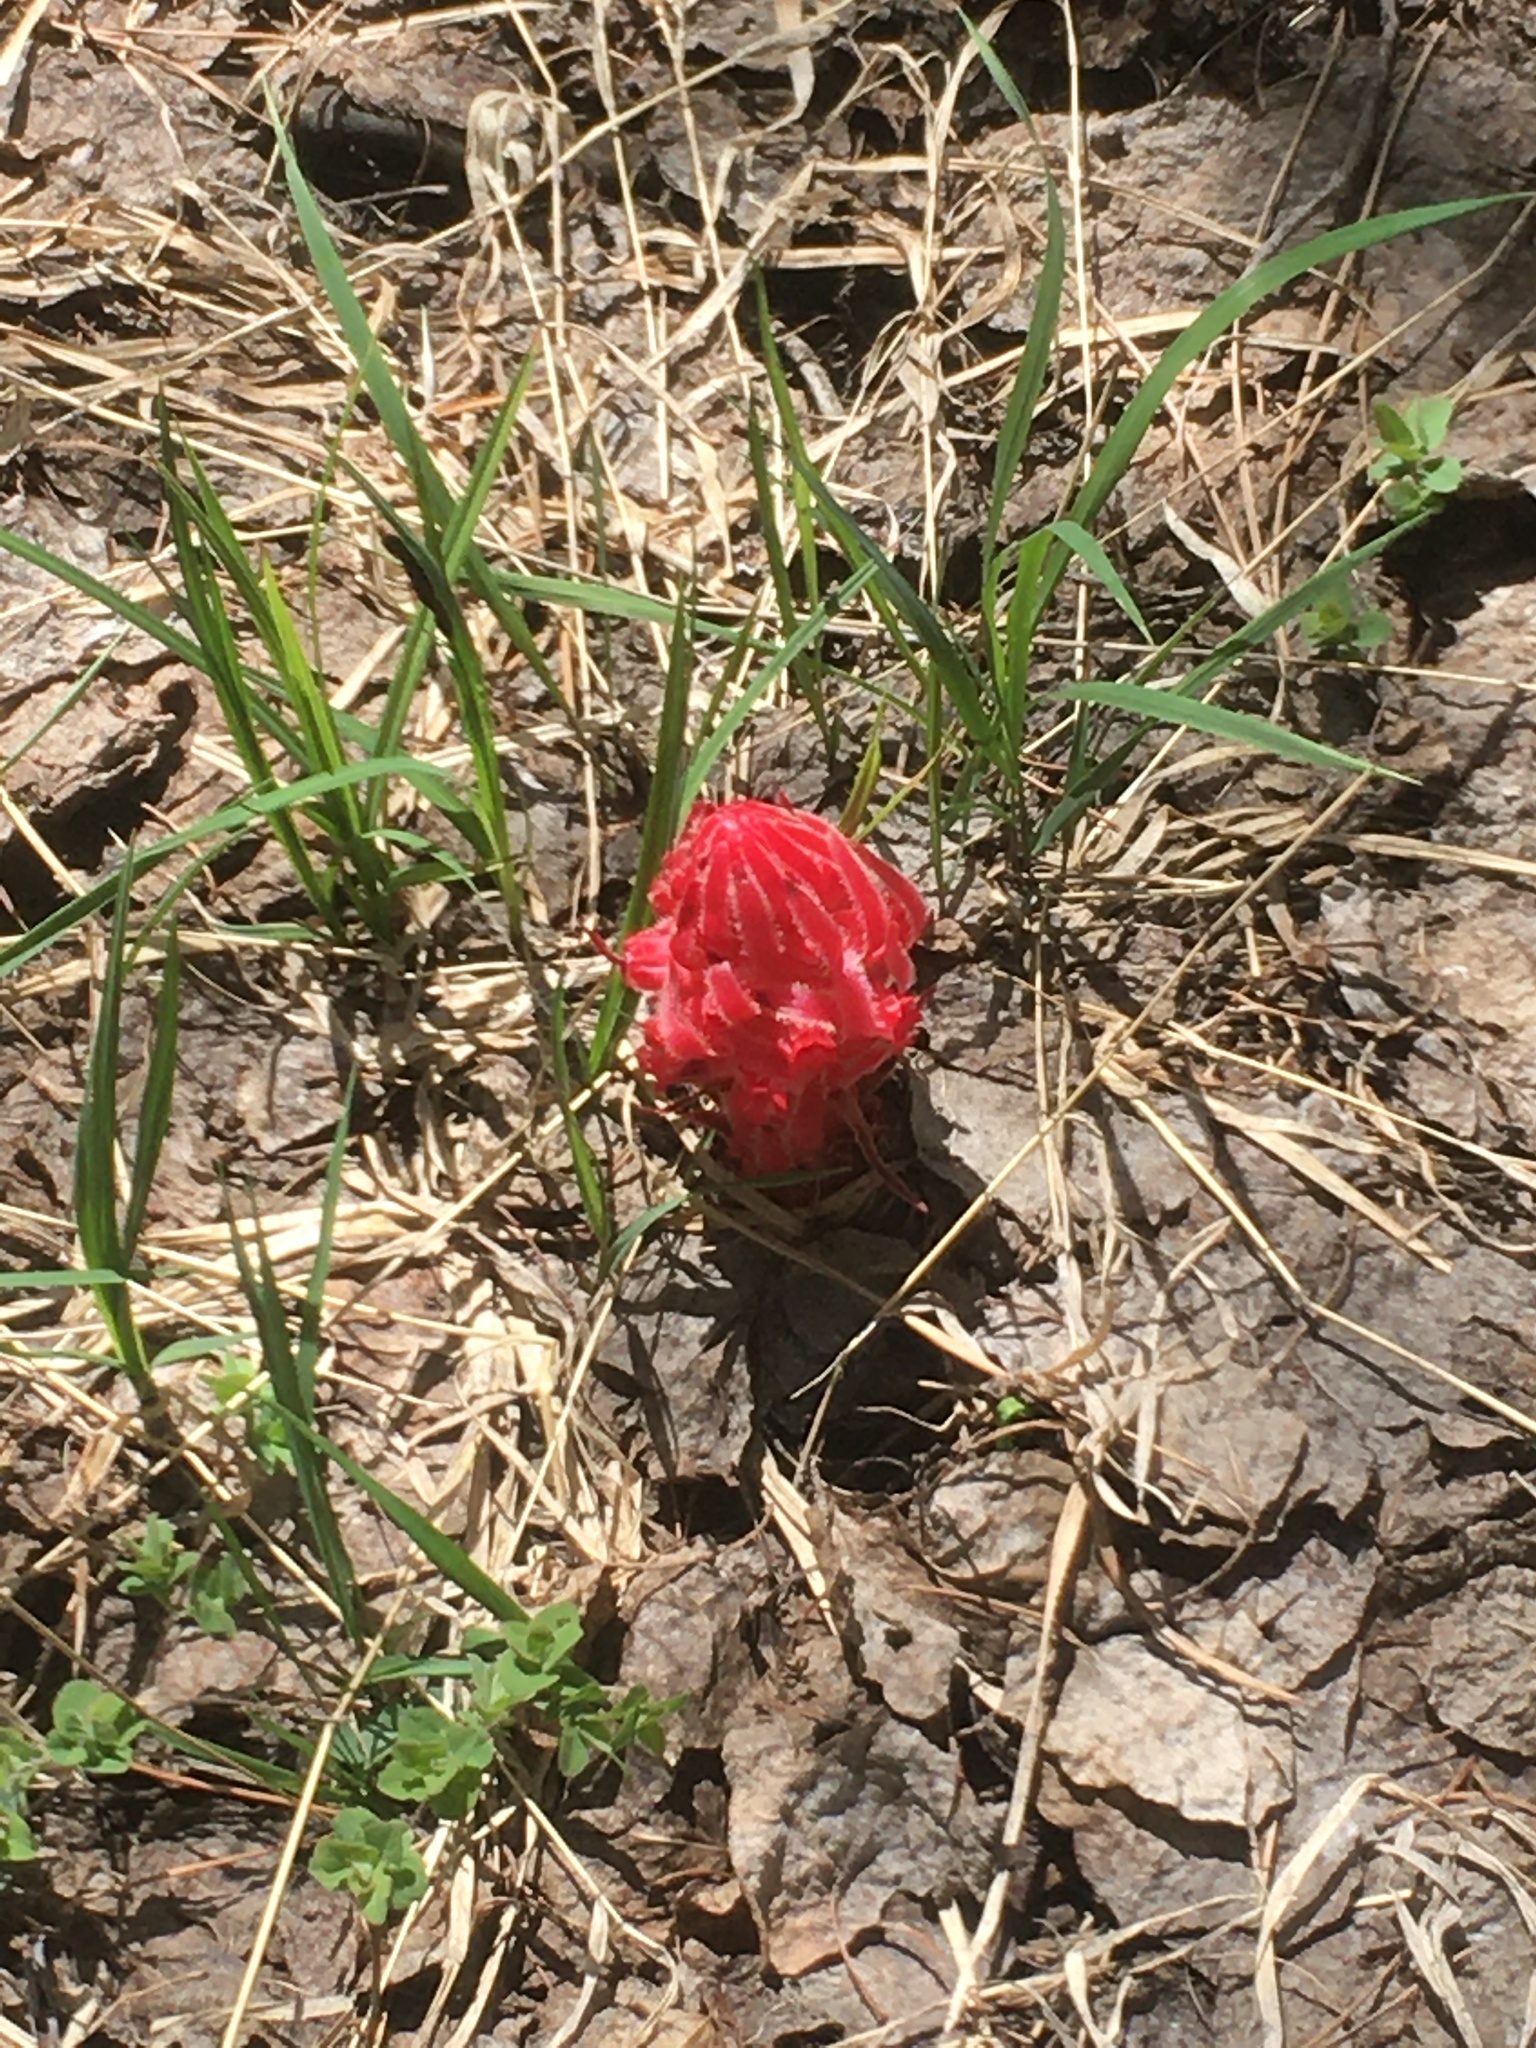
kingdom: Plantae
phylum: Tracheophyta
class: Magnoliopsida
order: Ericales
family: Ericaceae
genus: Sarcodes
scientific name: Sarcodes sanguinea
